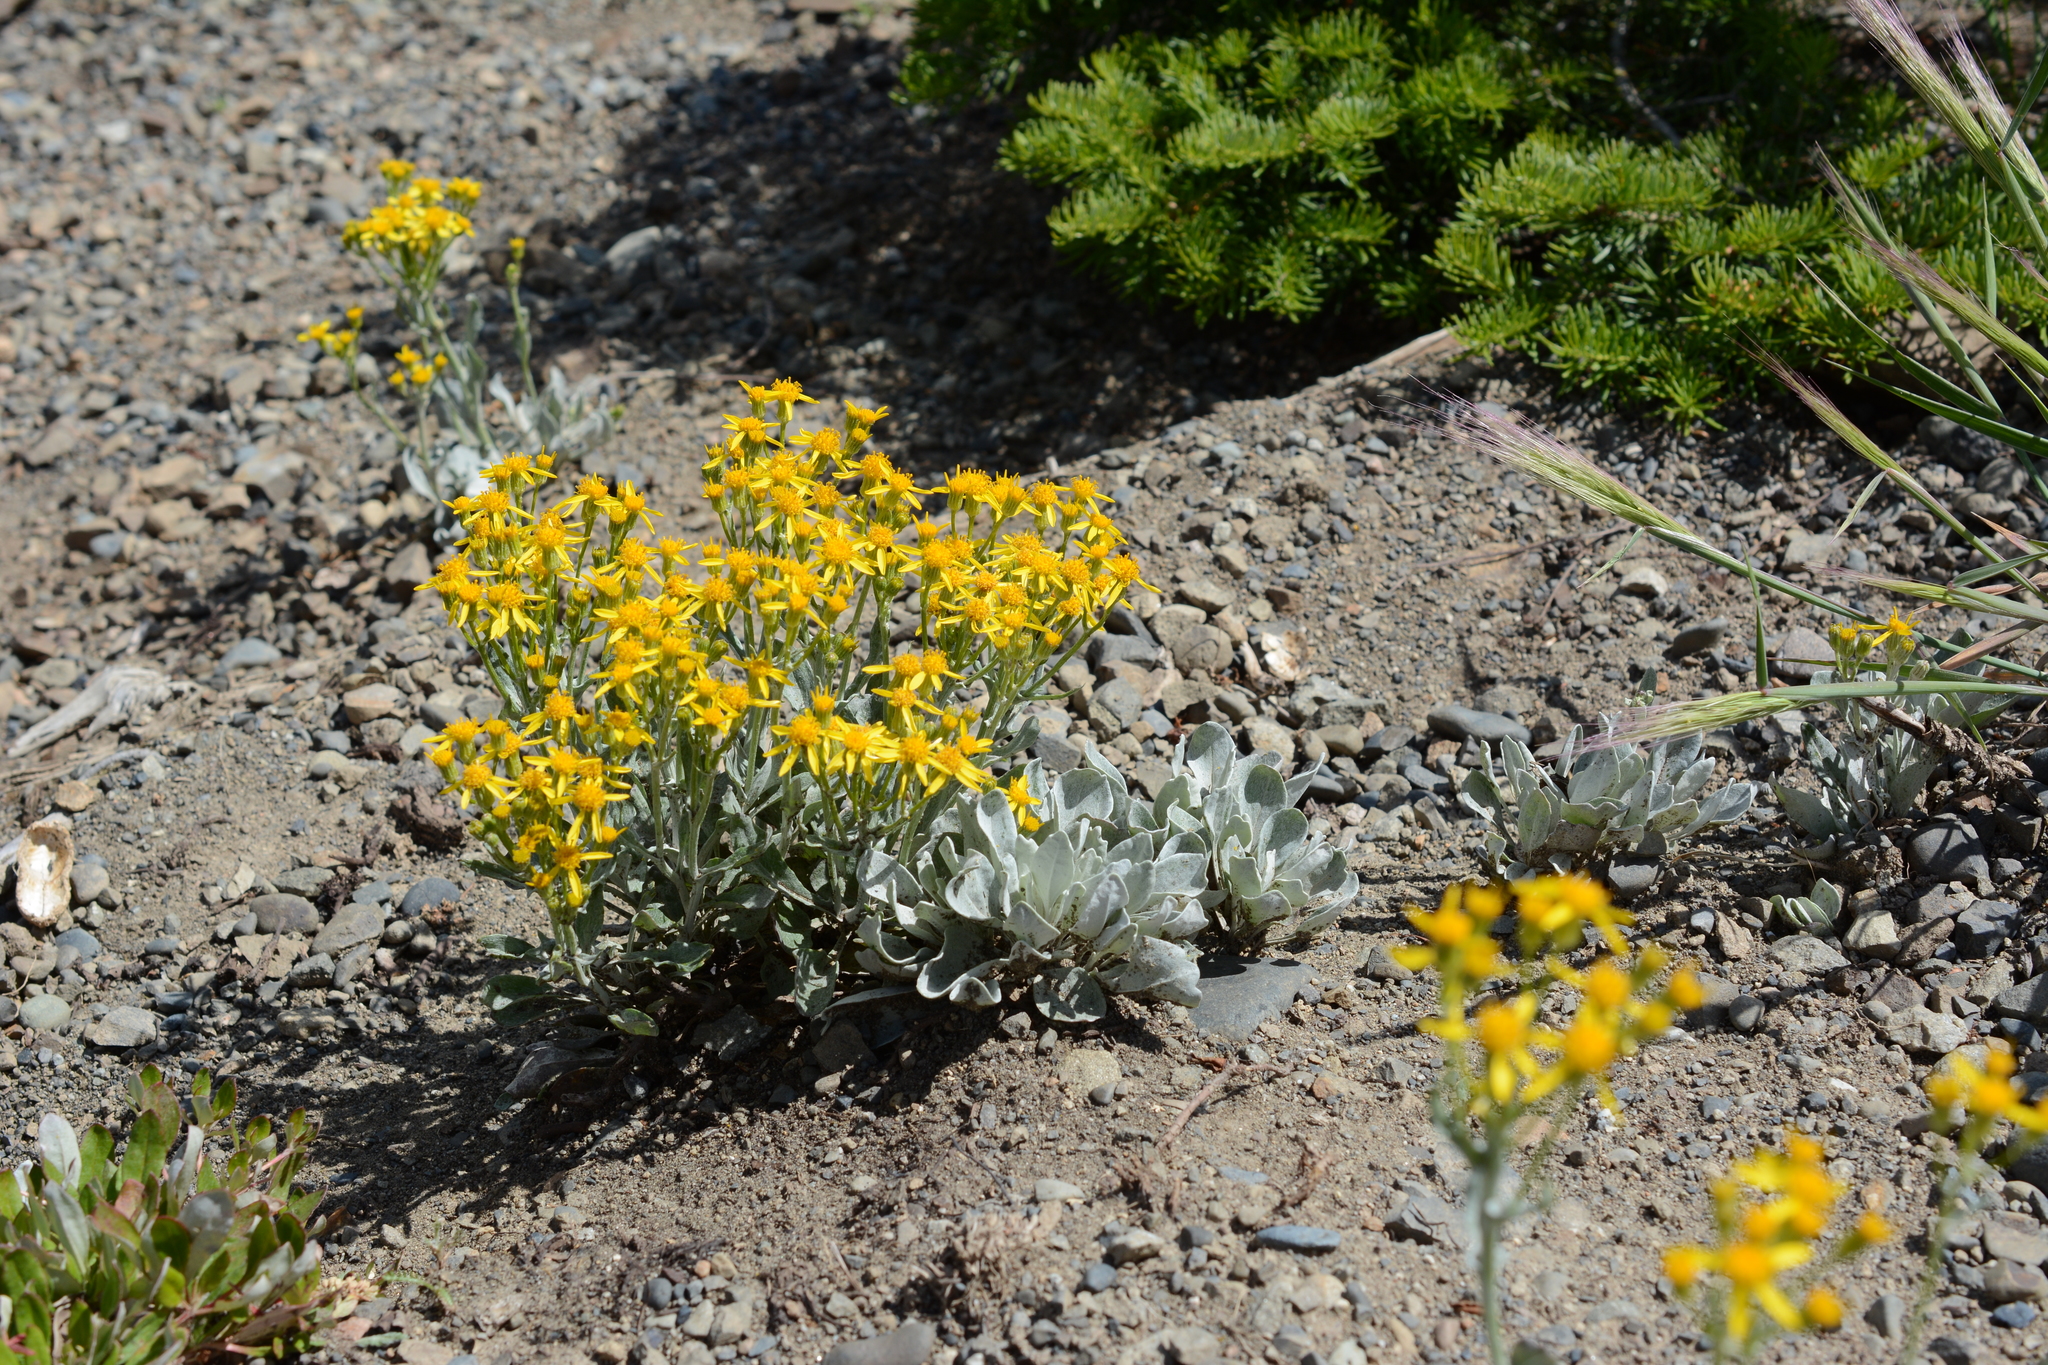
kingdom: Plantae
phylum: Tracheophyta
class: Magnoliopsida
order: Asterales
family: Asteraceae
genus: Packera
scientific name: Packera cana
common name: Woolly groundsel
